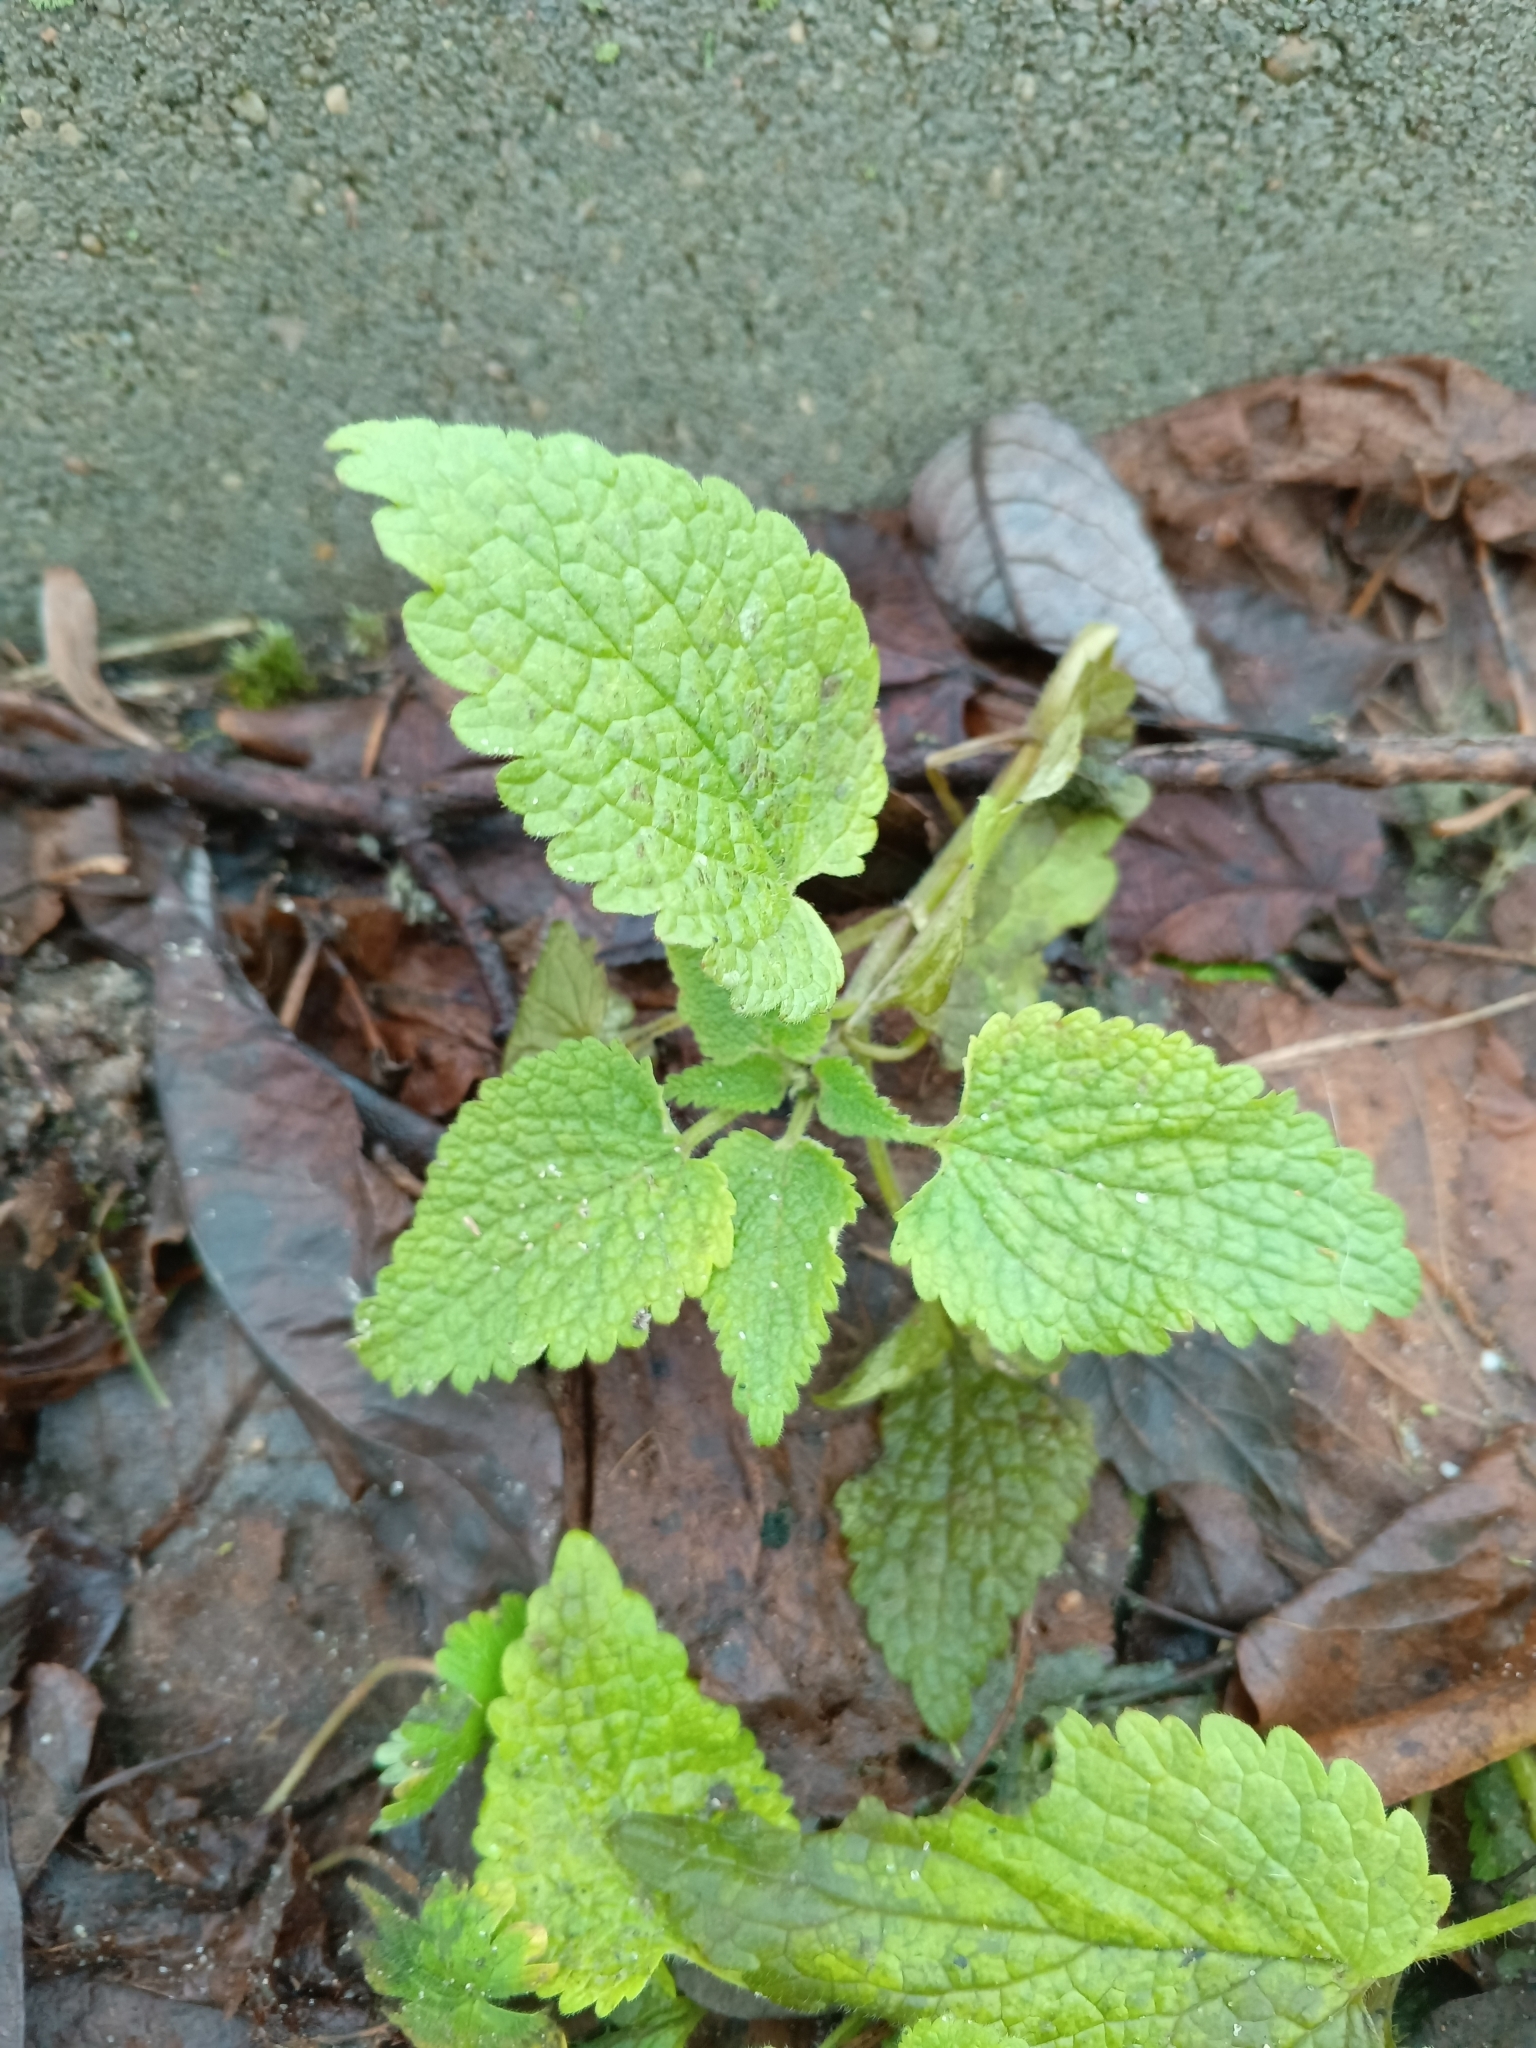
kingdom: Plantae
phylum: Tracheophyta
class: Magnoliopsida
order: Lamiales
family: Lamiaceae
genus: Lamium
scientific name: Lamium album
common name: White dead-nettle
